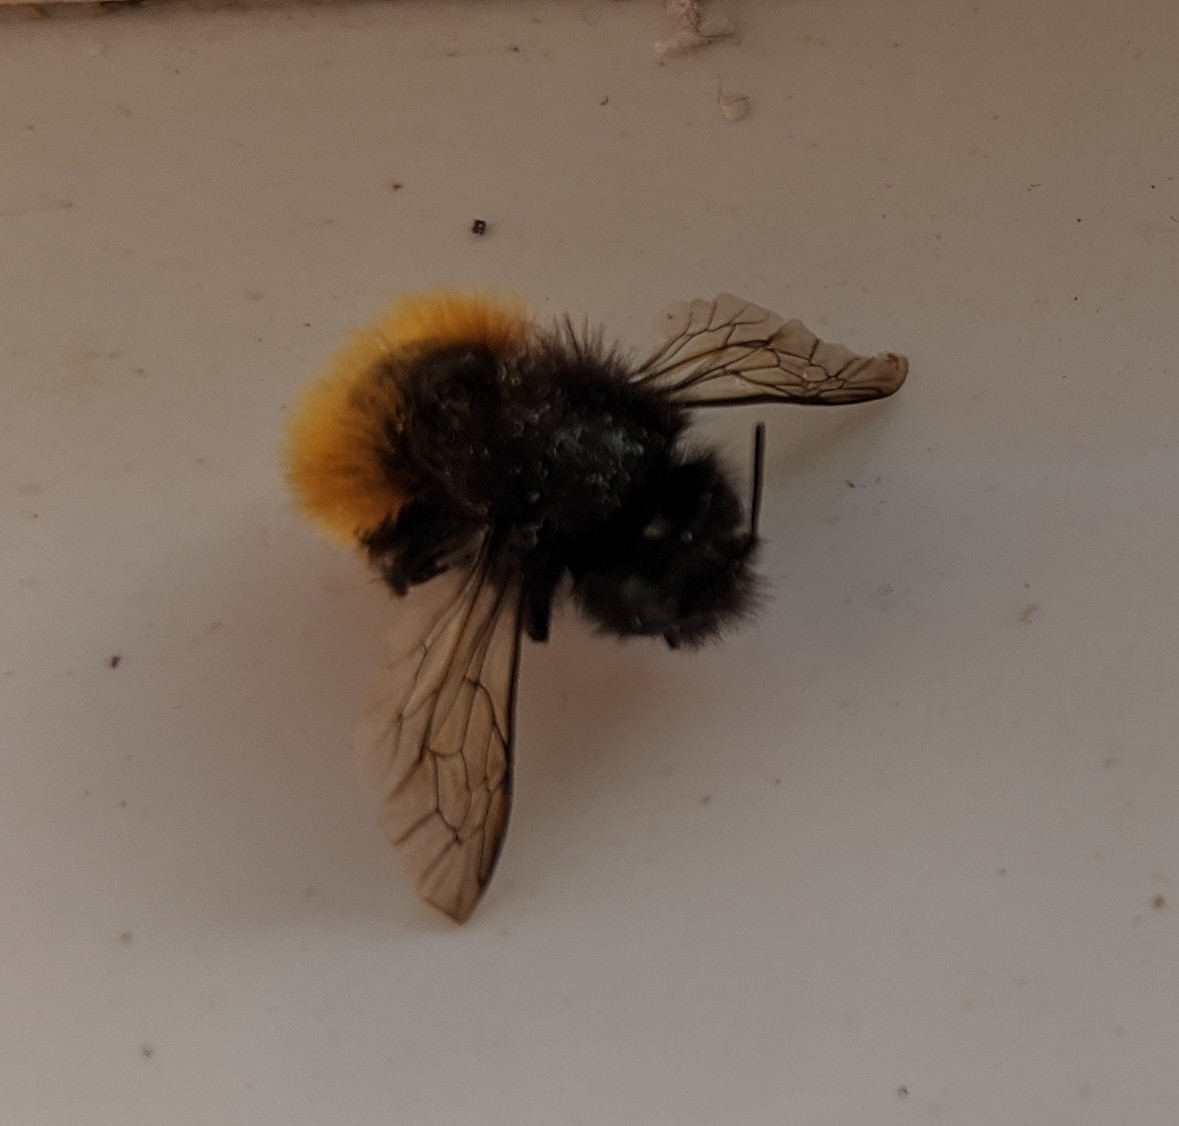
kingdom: Animalia
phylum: Arthropoda
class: Insecta
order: Hymenoptera
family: Megachilidae
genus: Osmia
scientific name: Osmia cornuta
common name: Mason bee
